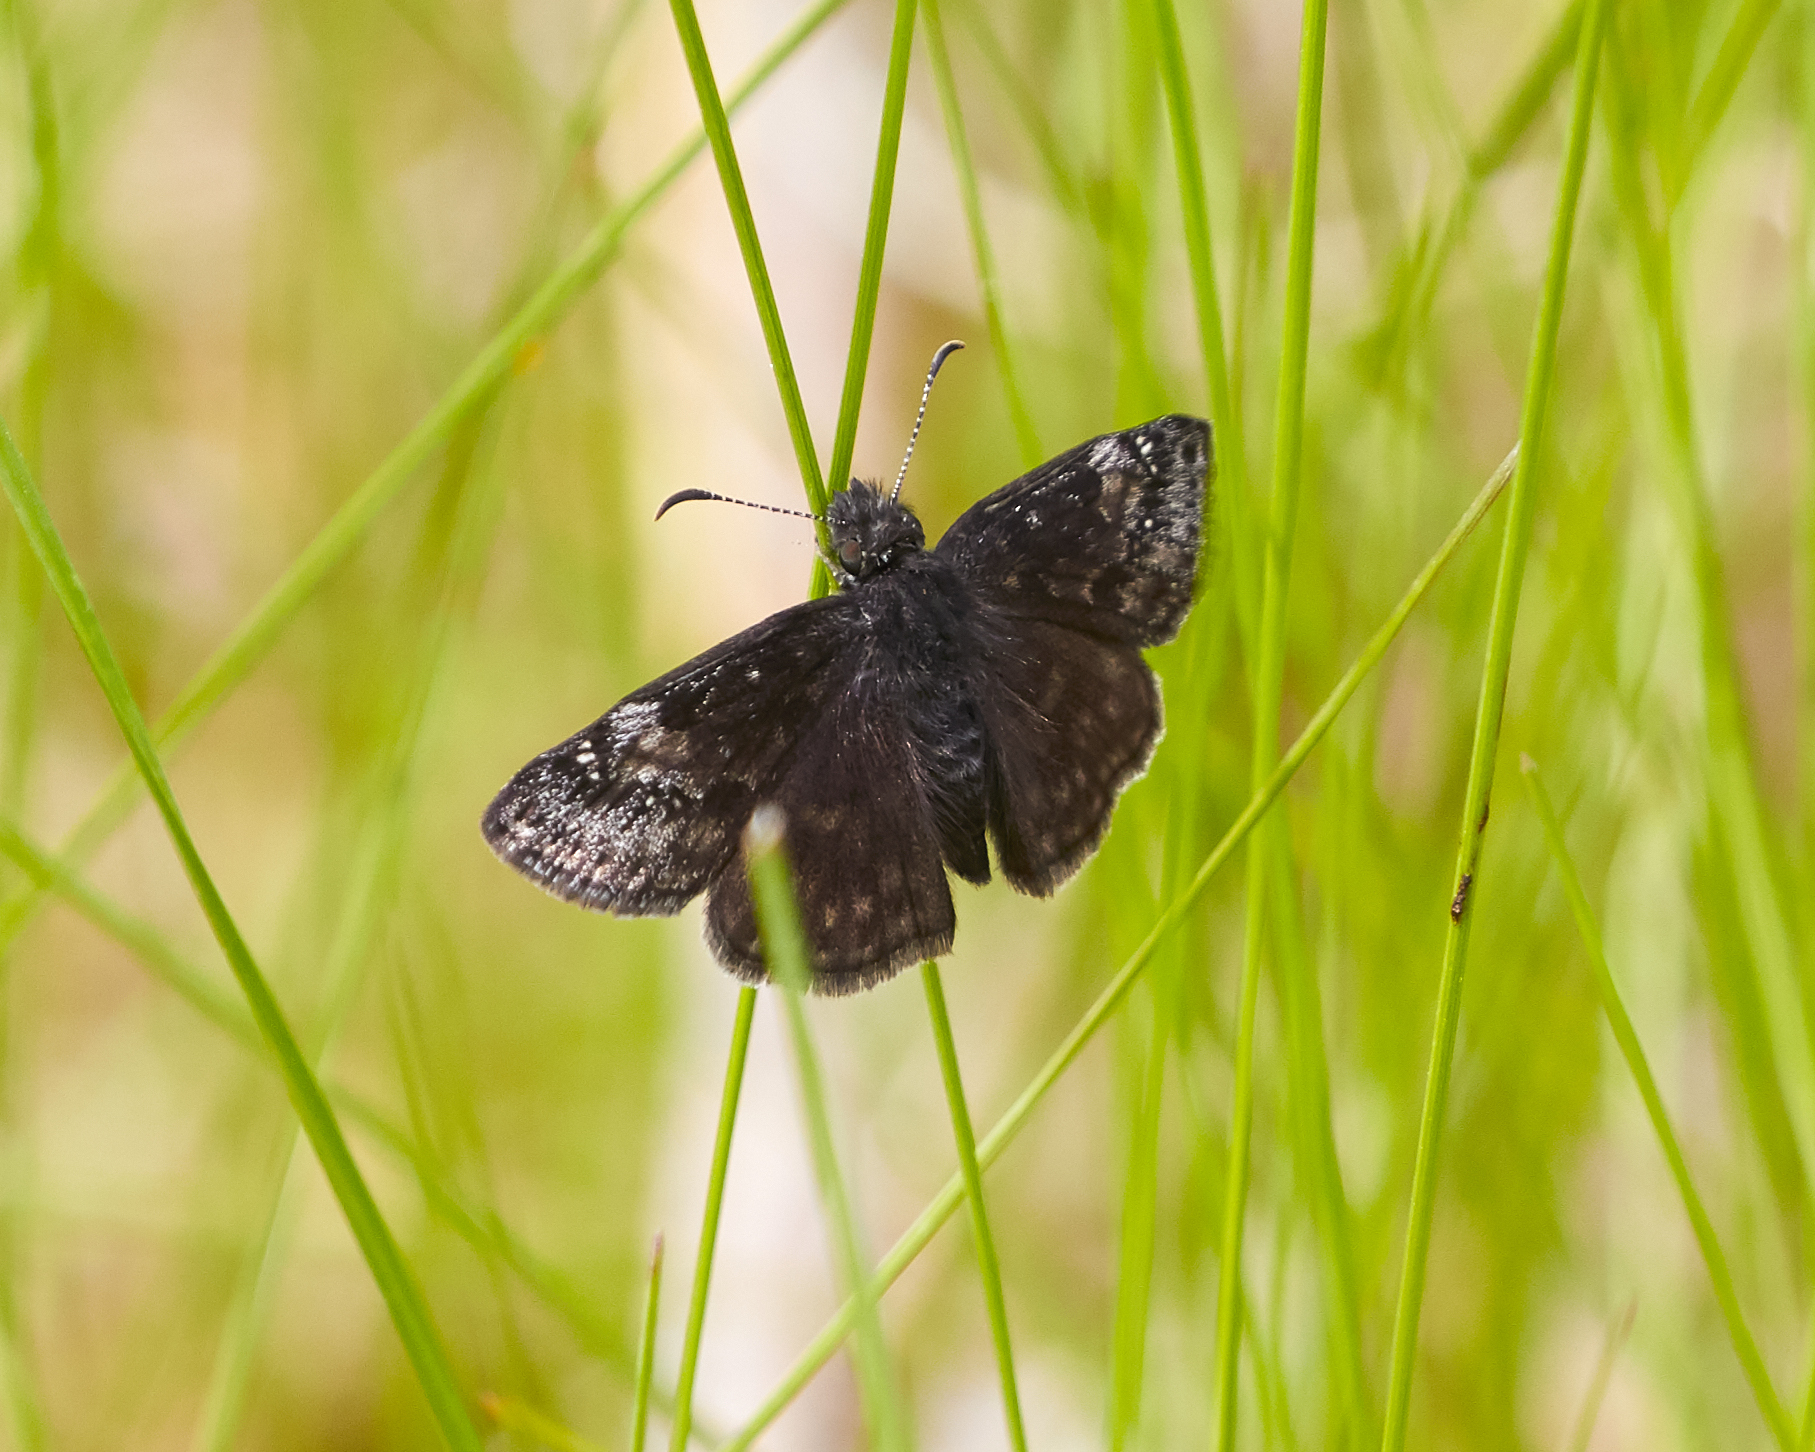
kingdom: Animalia
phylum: Arthropoda
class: Insecta
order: Lepidoptera
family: Hesperiidae
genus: Erynnis
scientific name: Erynnis baptisiae
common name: Wild indigo duskywing
